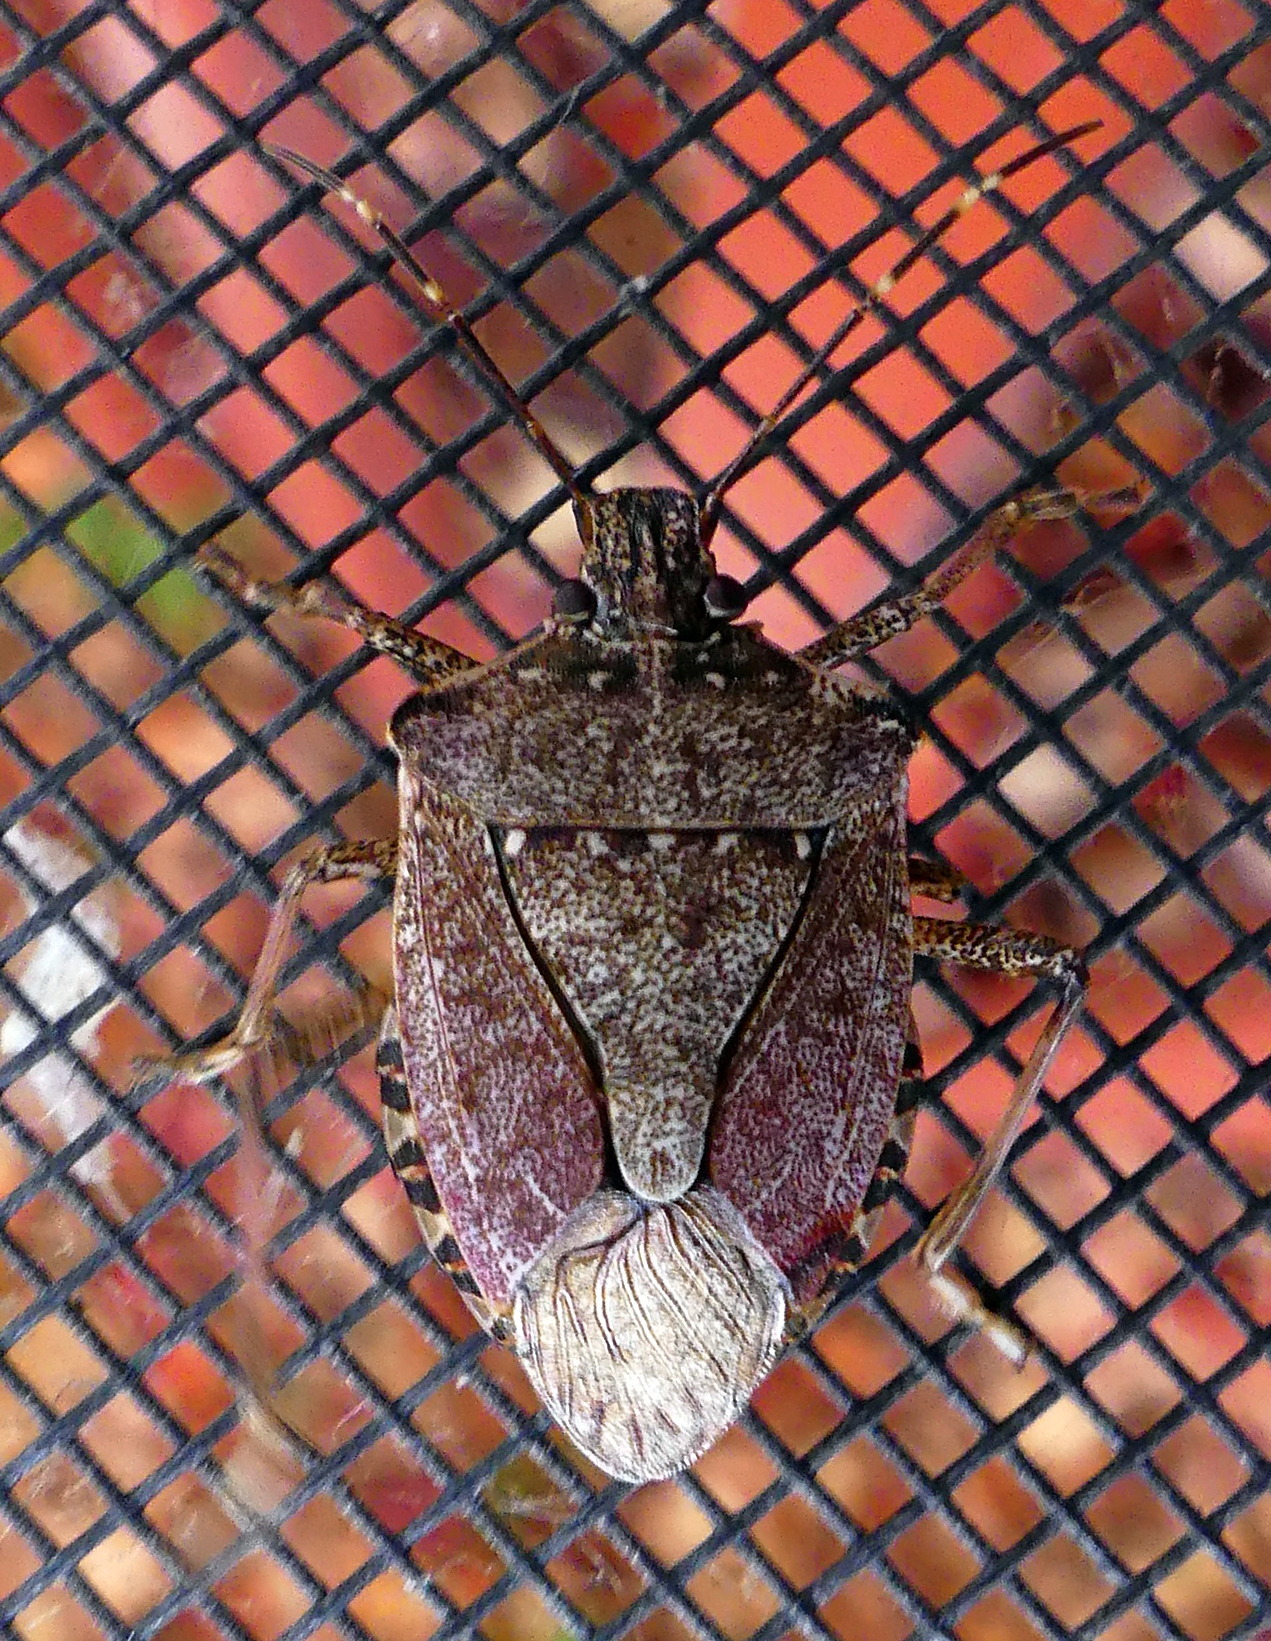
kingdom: Animalia
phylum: Arthropoda
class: Insecta
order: Hemiptera
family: Pentatomidae
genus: Halyomorpha
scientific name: Halyomorpha halys
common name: Brown marmorated stink bug
